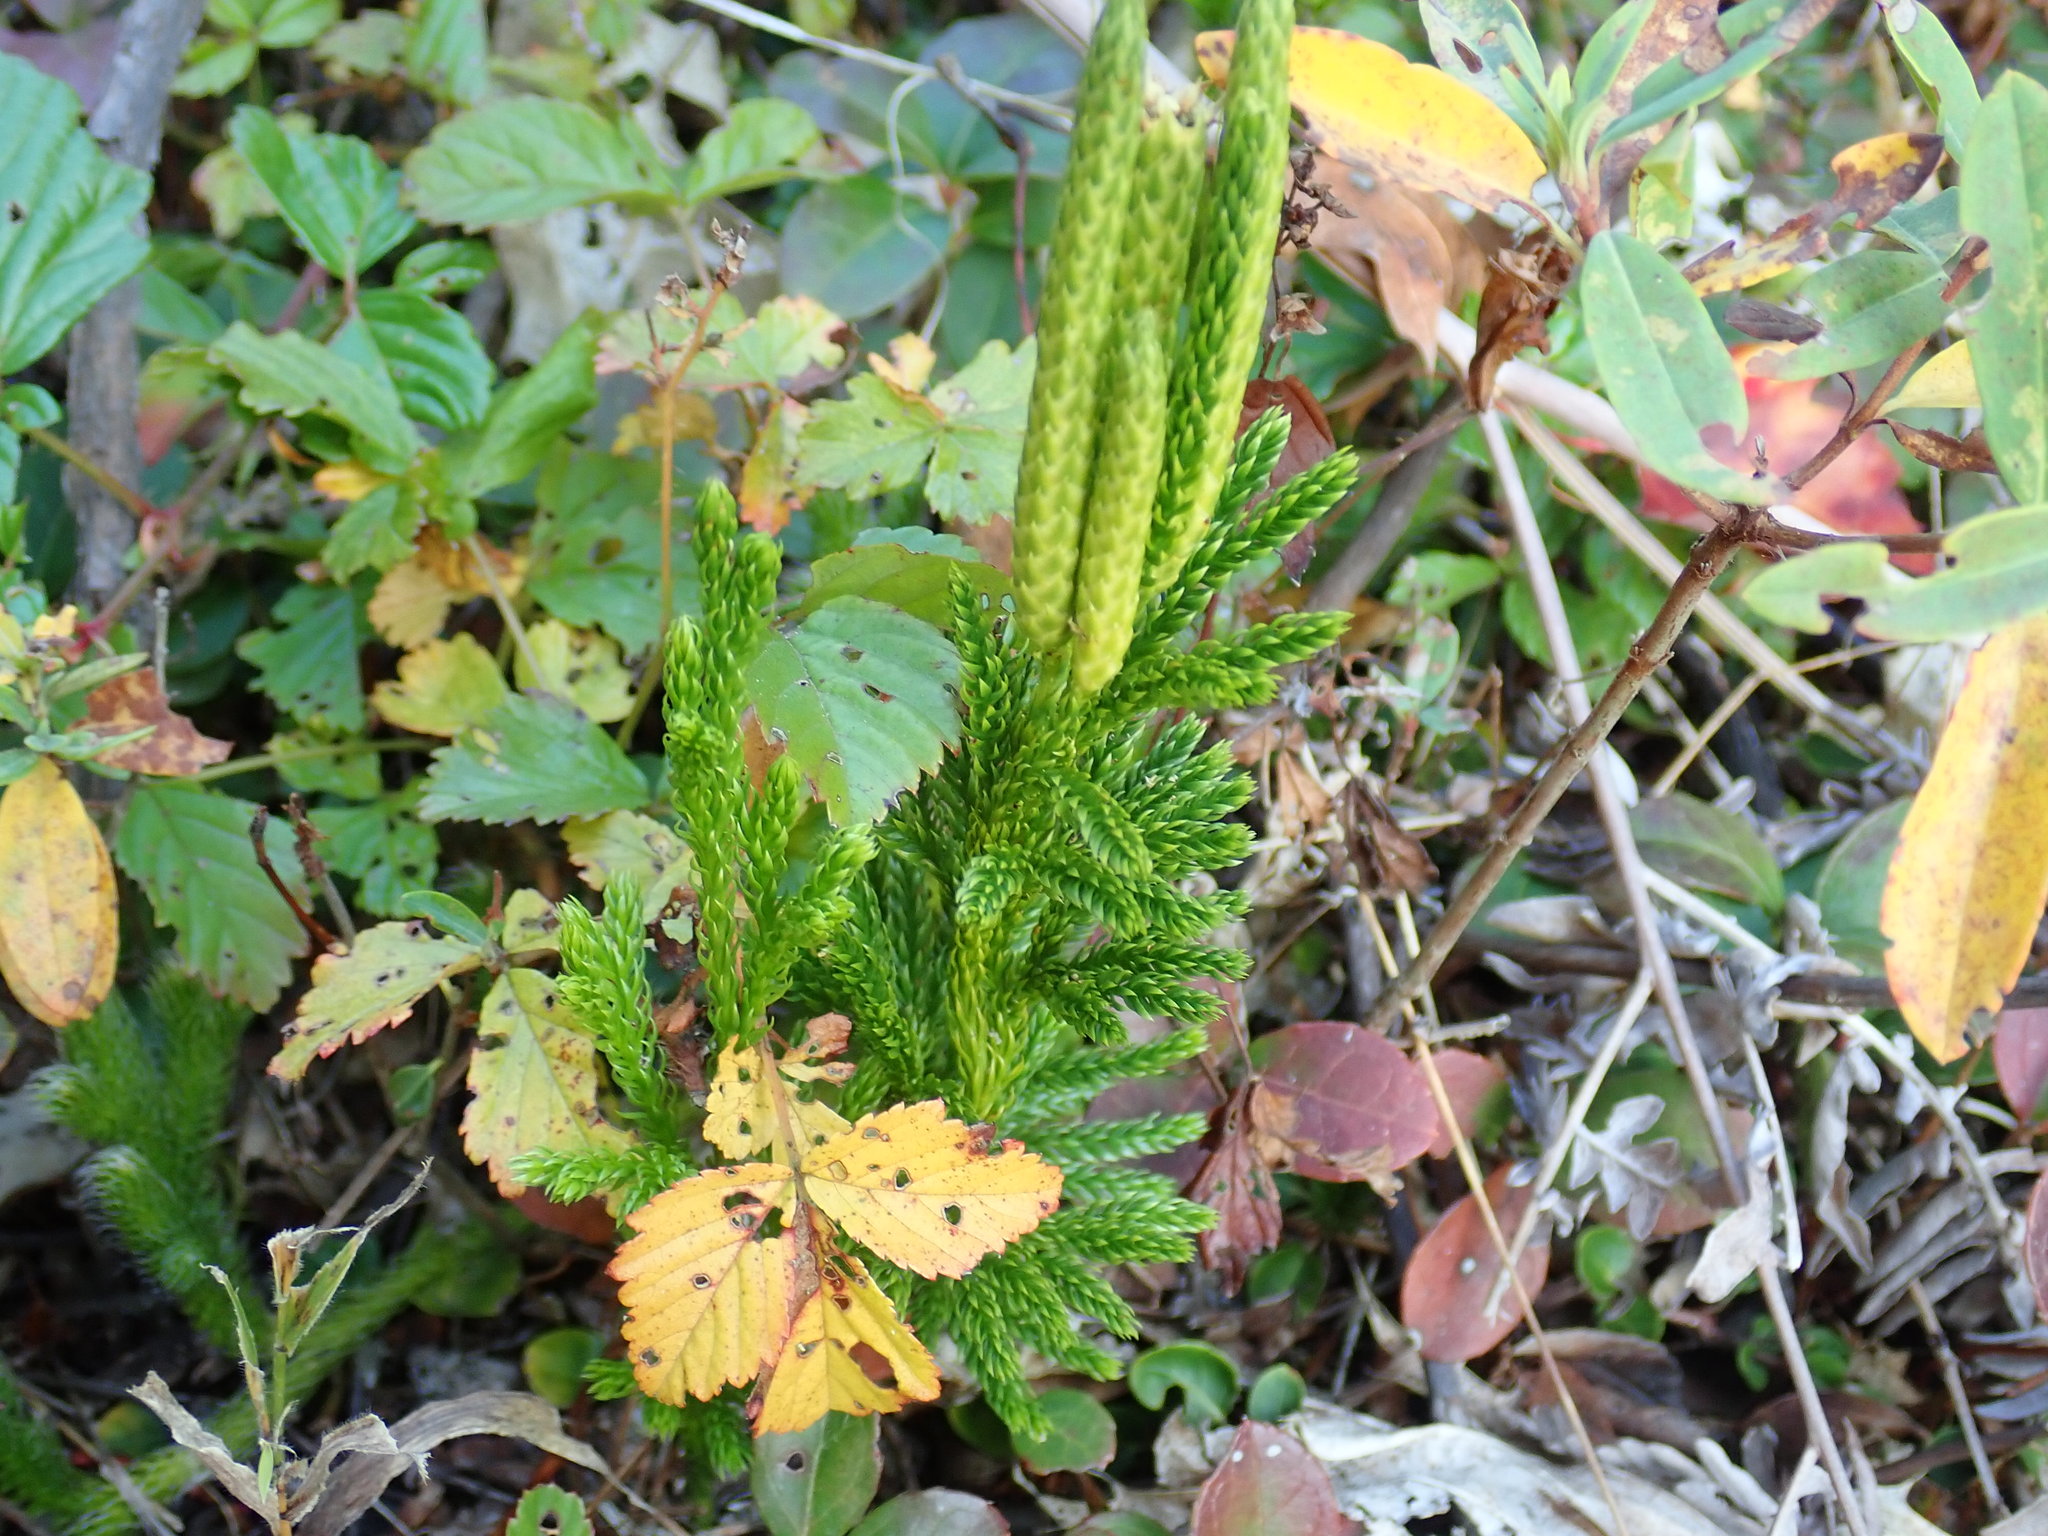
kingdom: Plantae
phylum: Tracheophyta
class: Lycopodiopsida
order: Lycopodiales
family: Lycopodiaceae
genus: Dendrolycopodium
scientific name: Dendrolycopodium hickeyi
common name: Hickey's clubmoss
